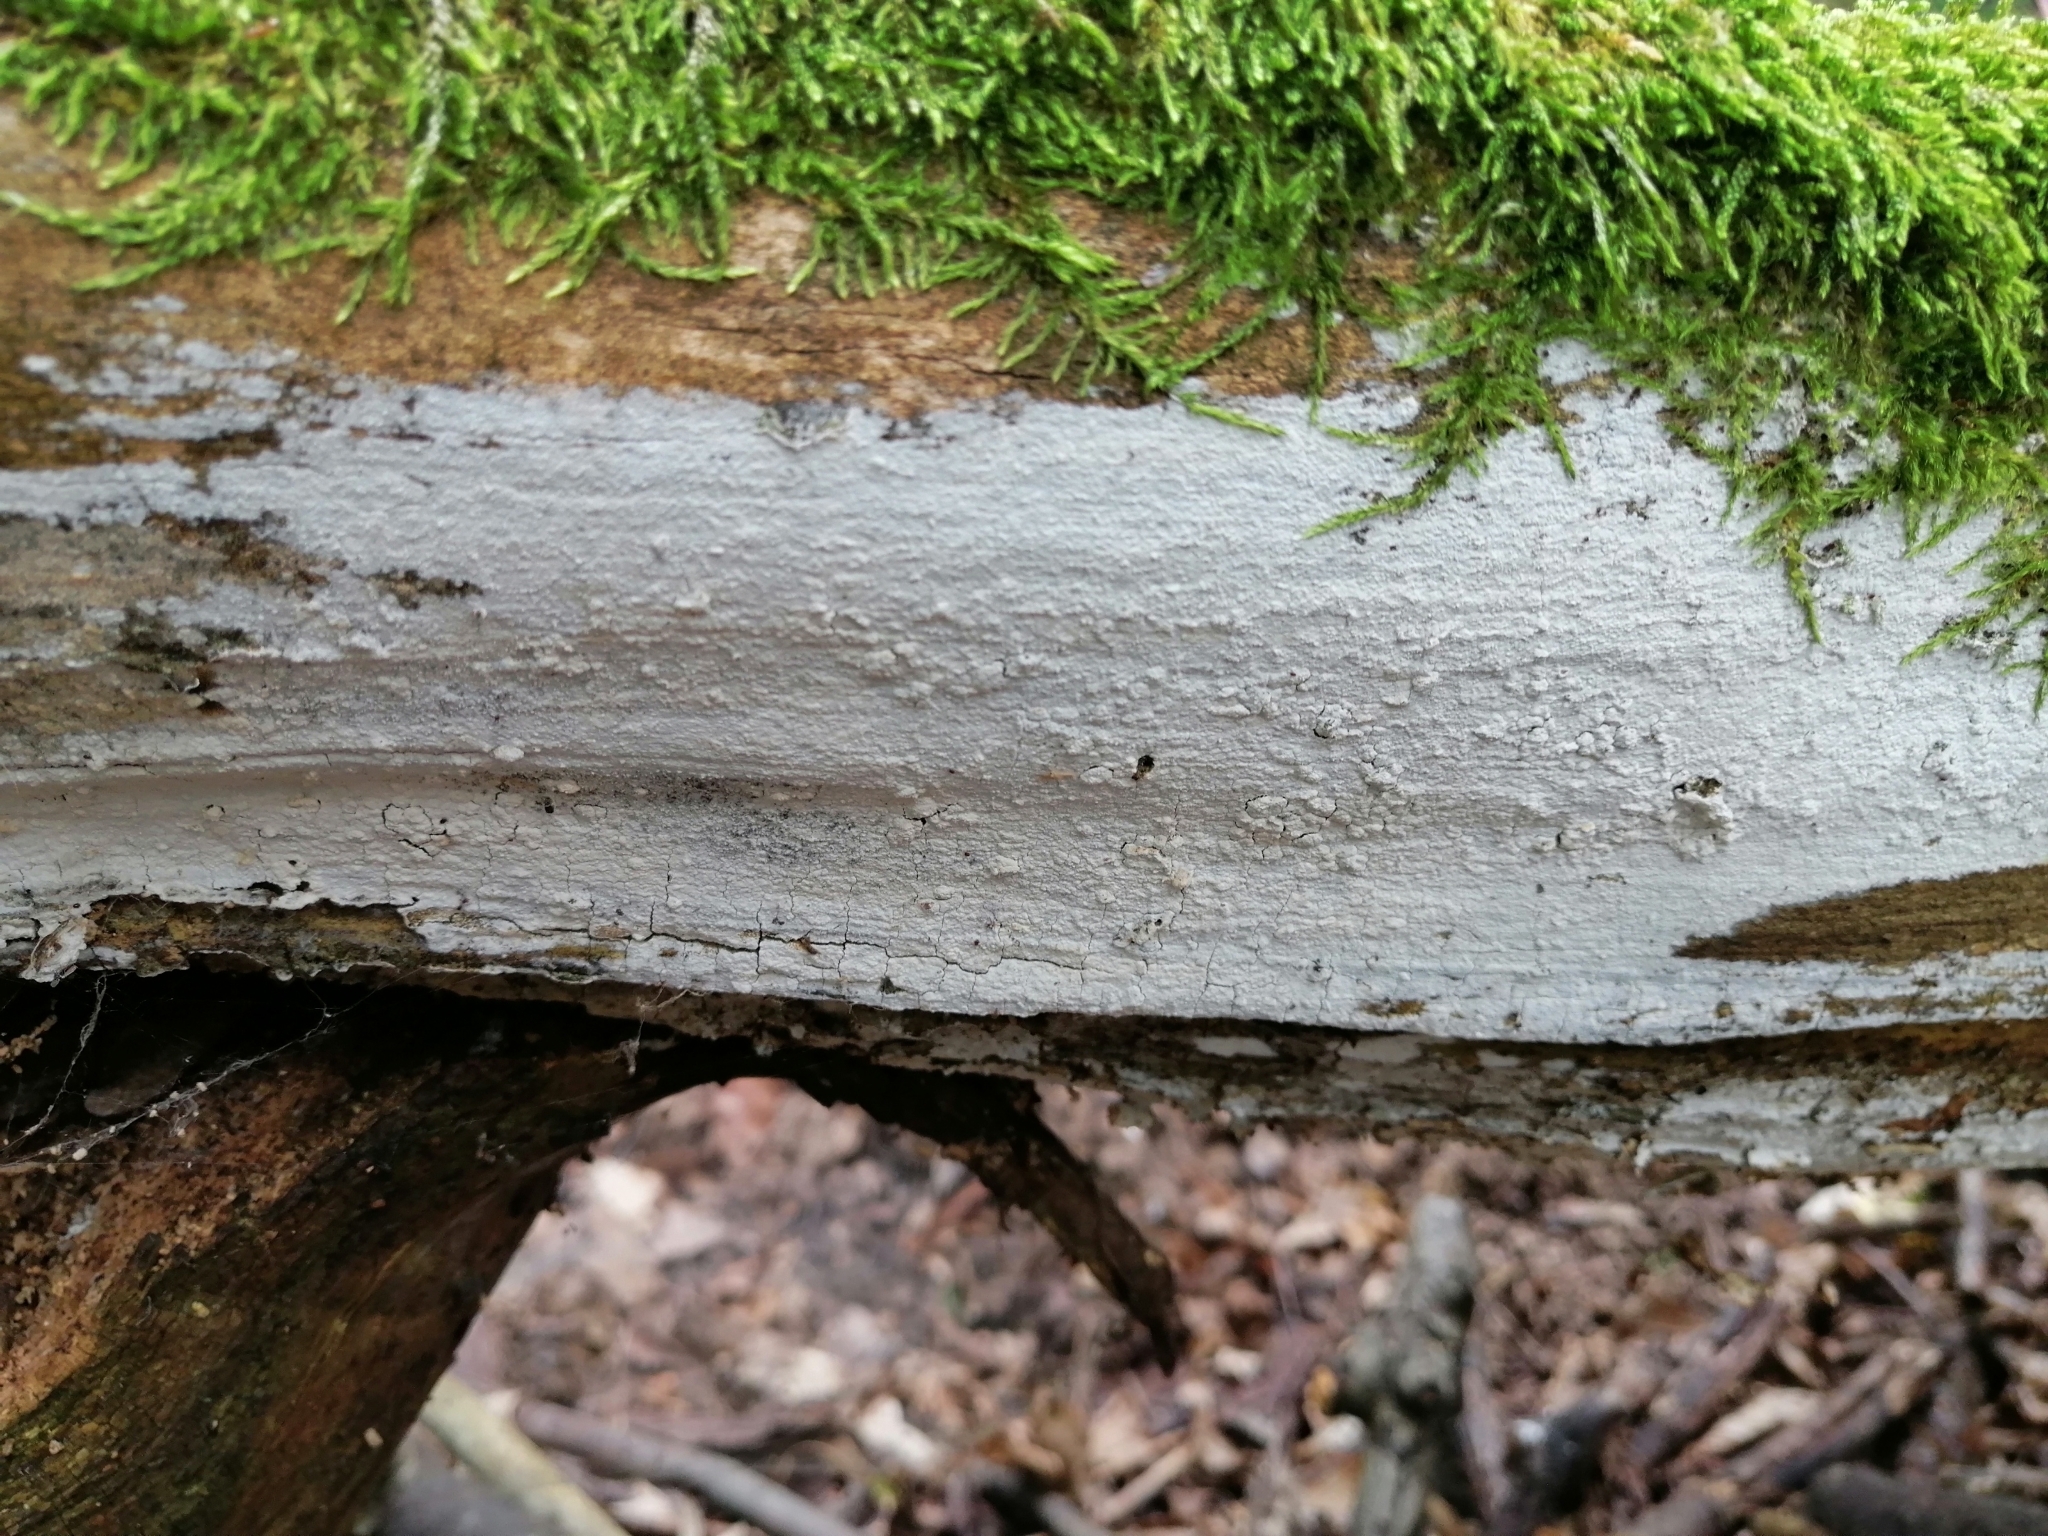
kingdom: Fungi
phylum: Basidiomycota
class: Agaricomycetes
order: Corticiales
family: Corticiaceae
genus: Lyomyces
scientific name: Lyomyces sambuci
